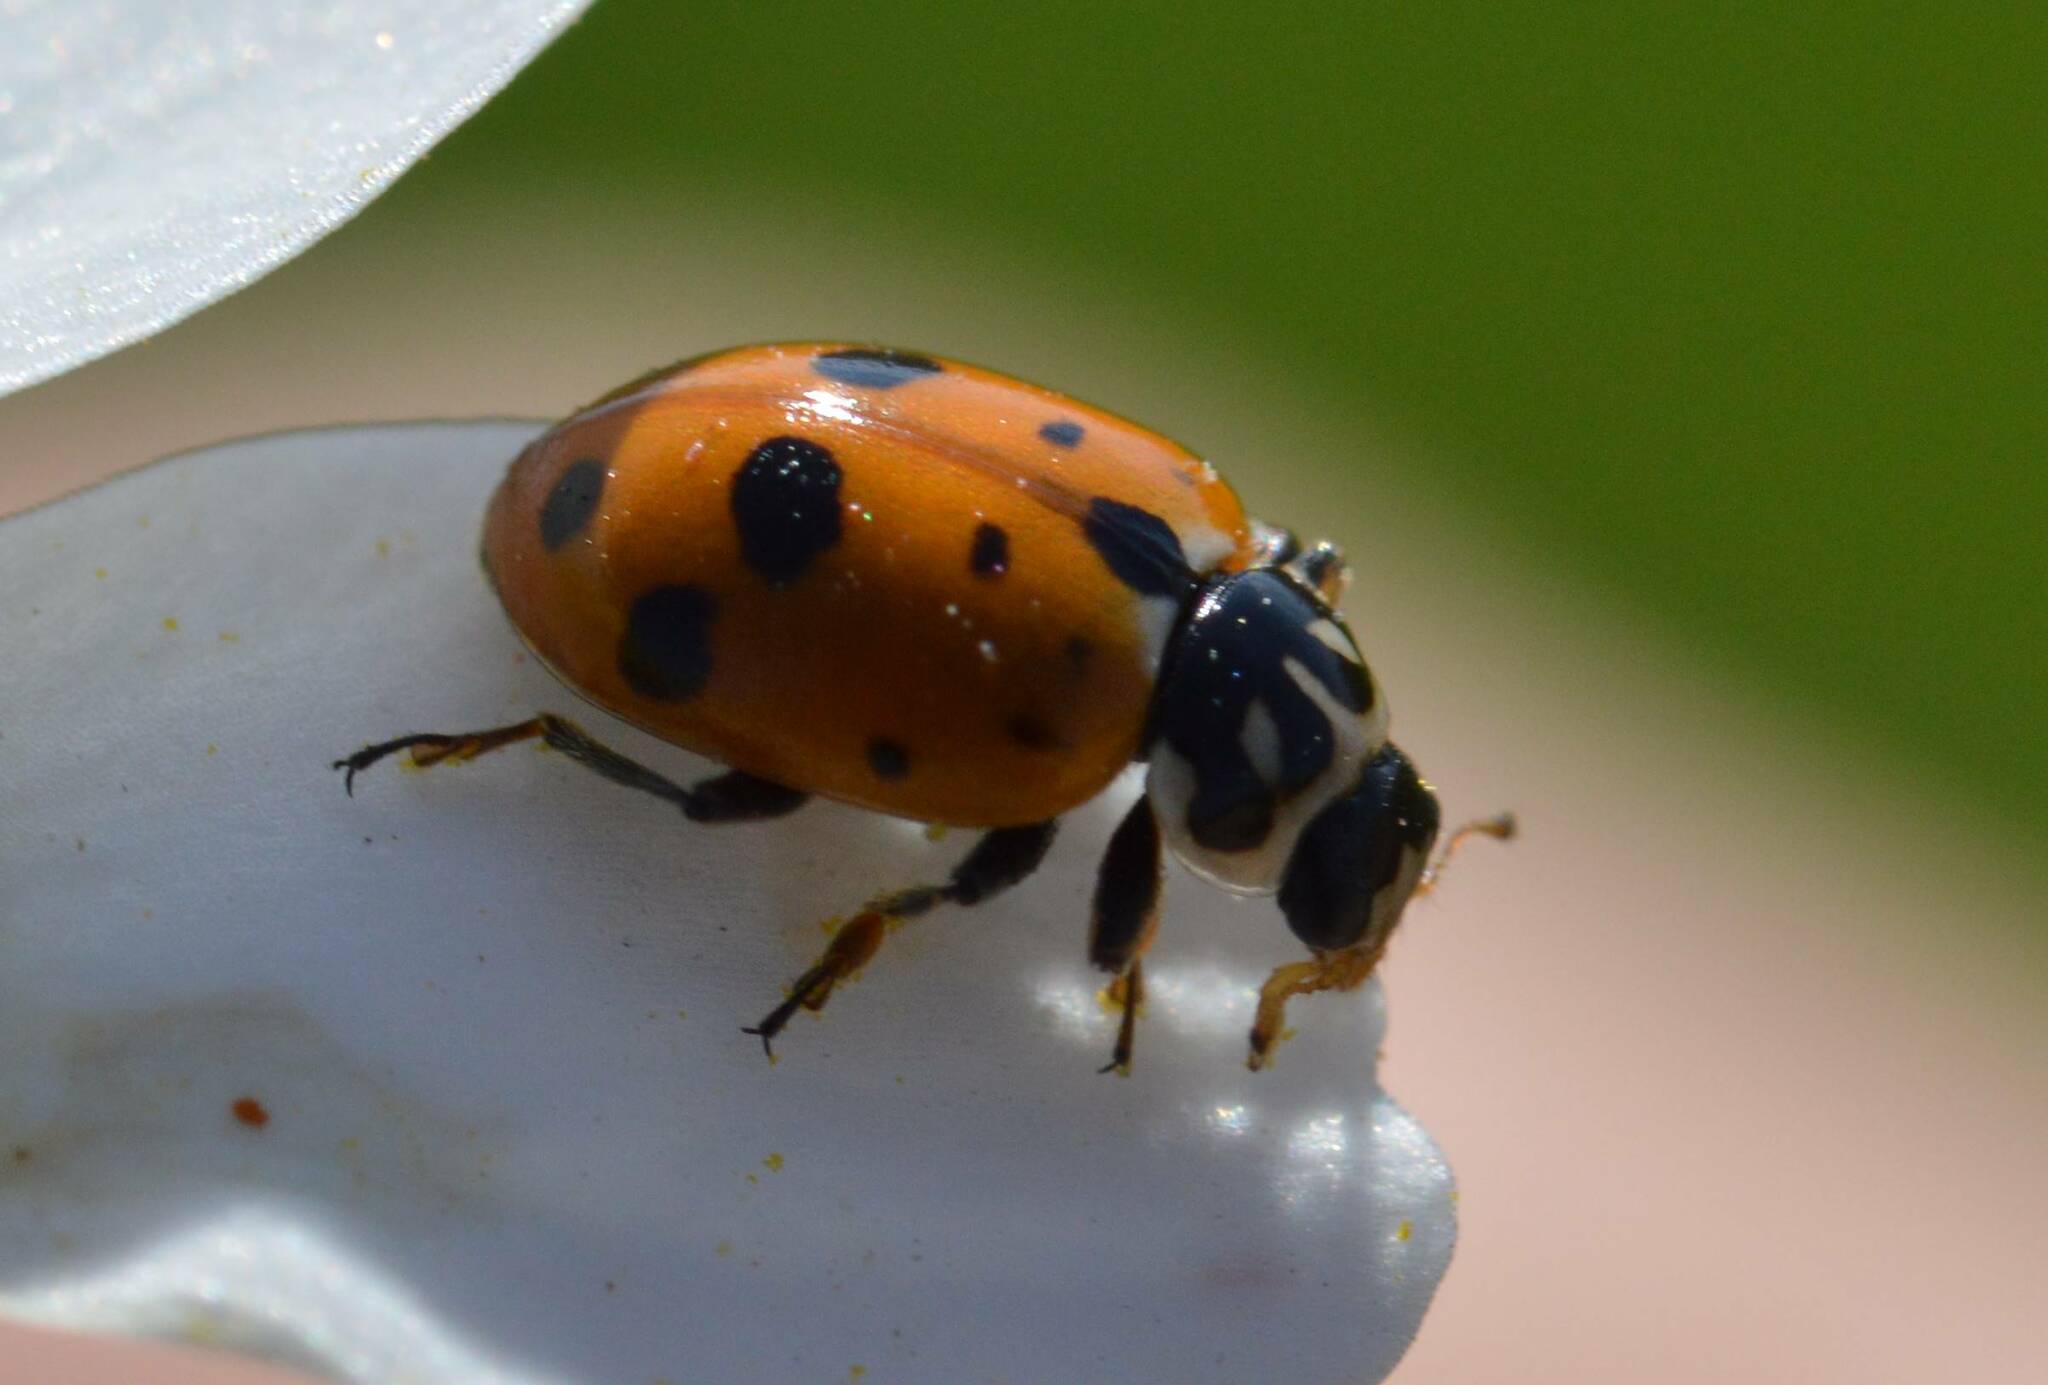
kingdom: Animalia
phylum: Arthropoda
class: Insecta
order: Coleoptera
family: Coccinellidae
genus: Hippodamia
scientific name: Hippodamia variegata
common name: Ladybird beetle
